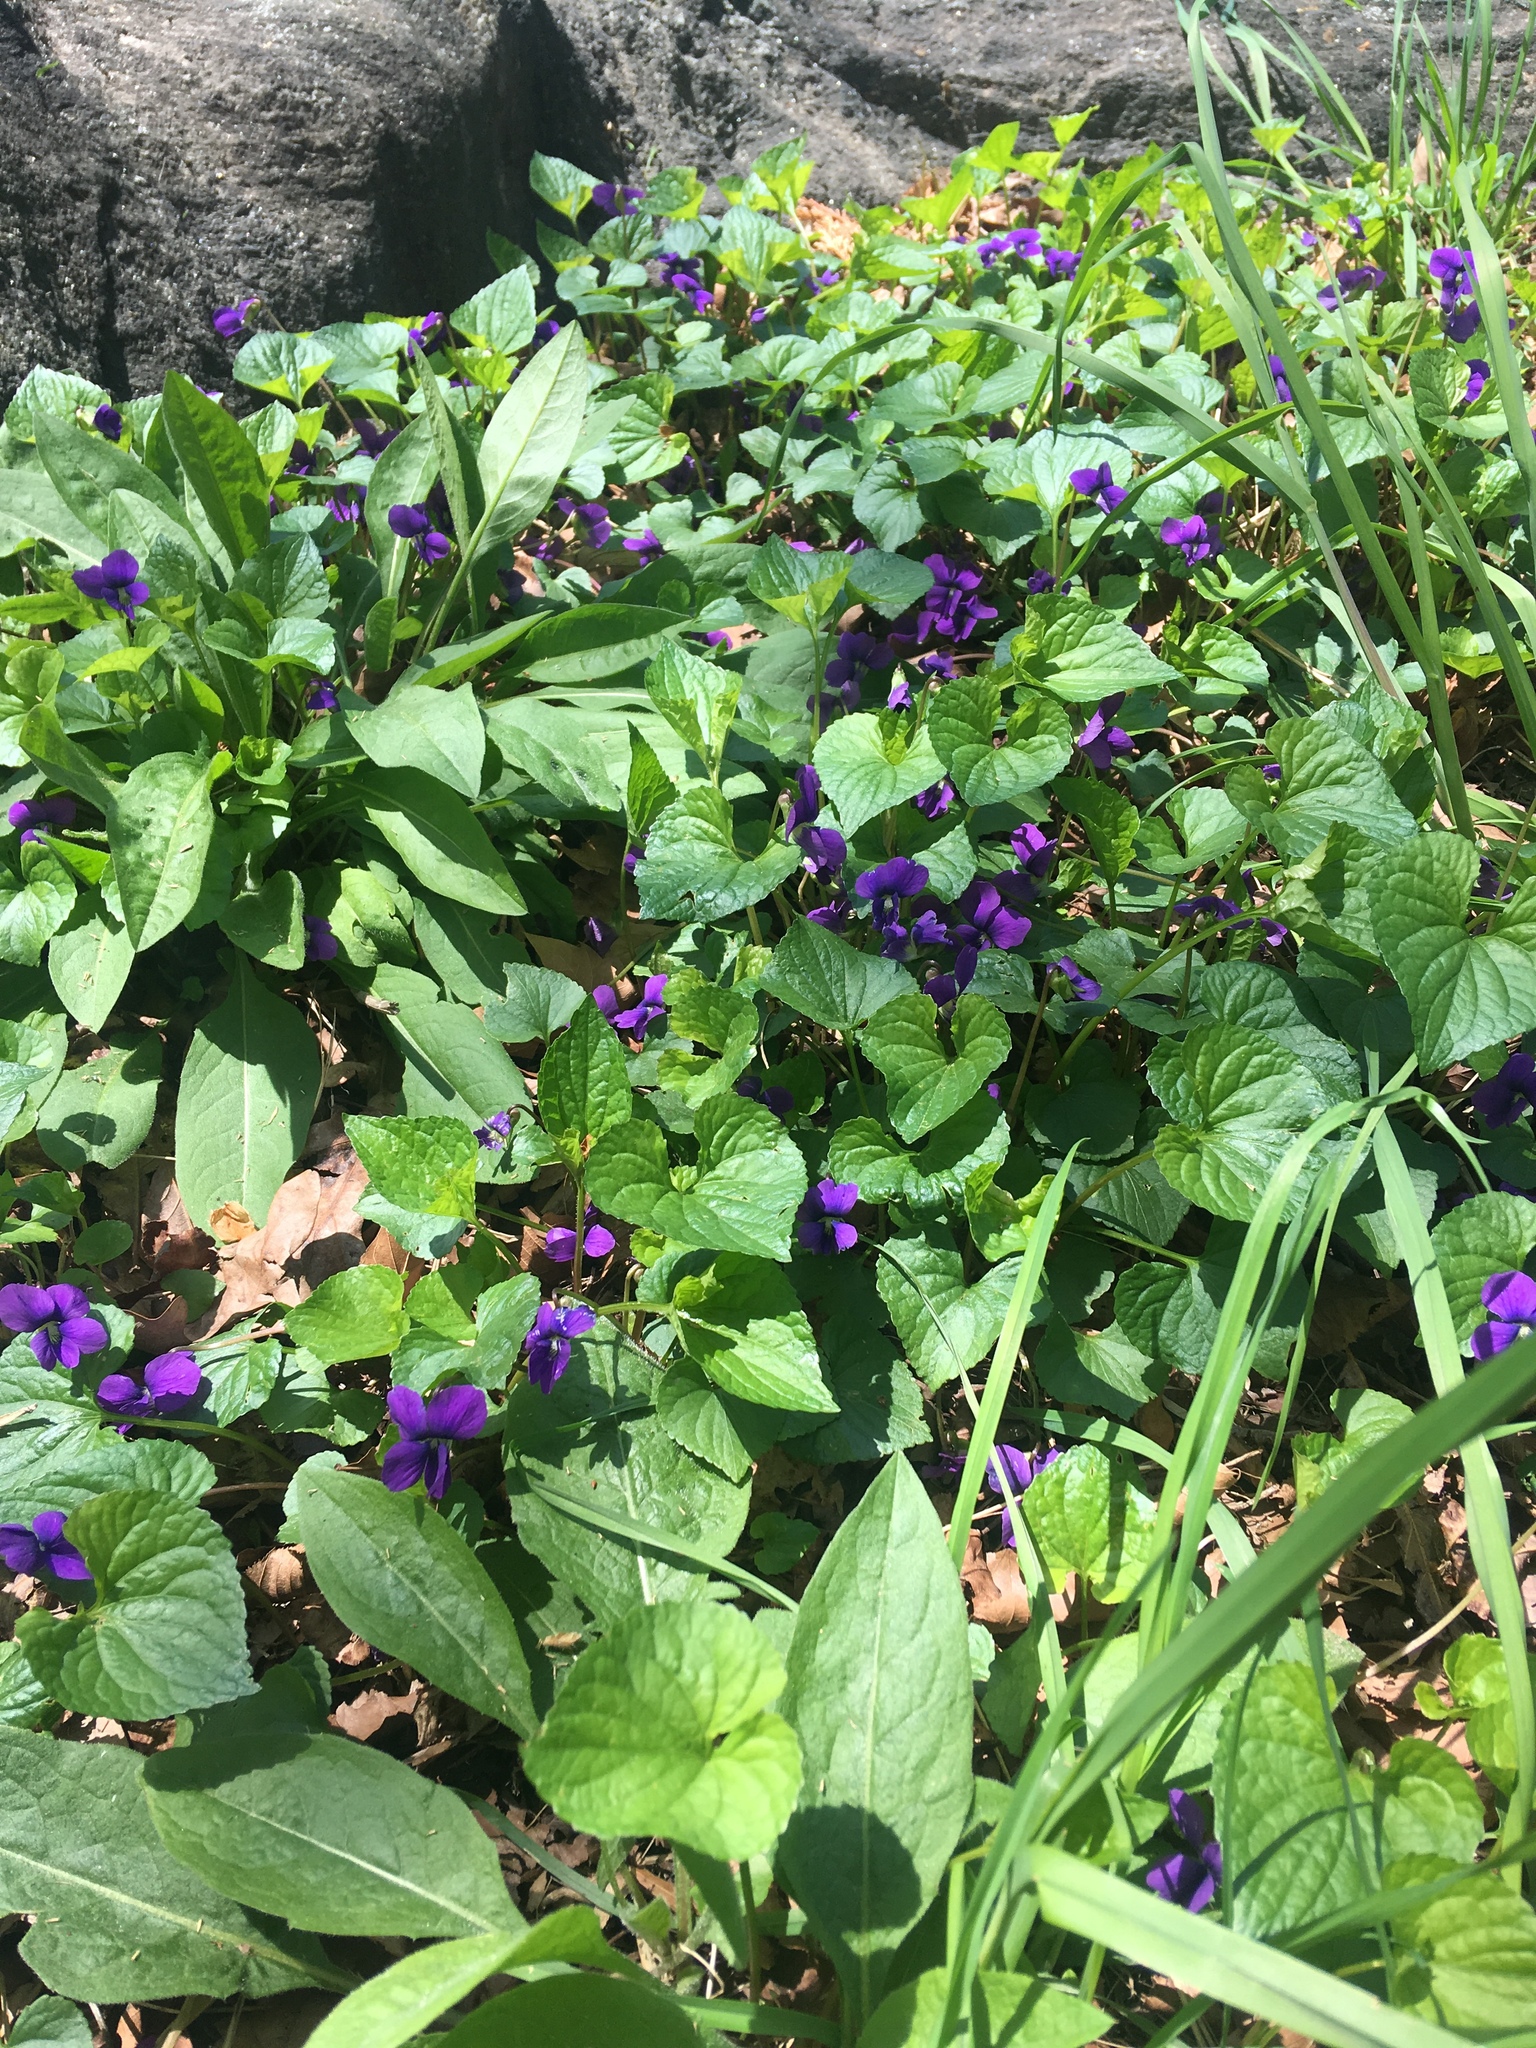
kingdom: Plantae
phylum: Tracheophyta
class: Magnoliopsida
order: Malpighiales
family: Violaceae
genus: Viola
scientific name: Viola sororia
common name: Dooryard violet
